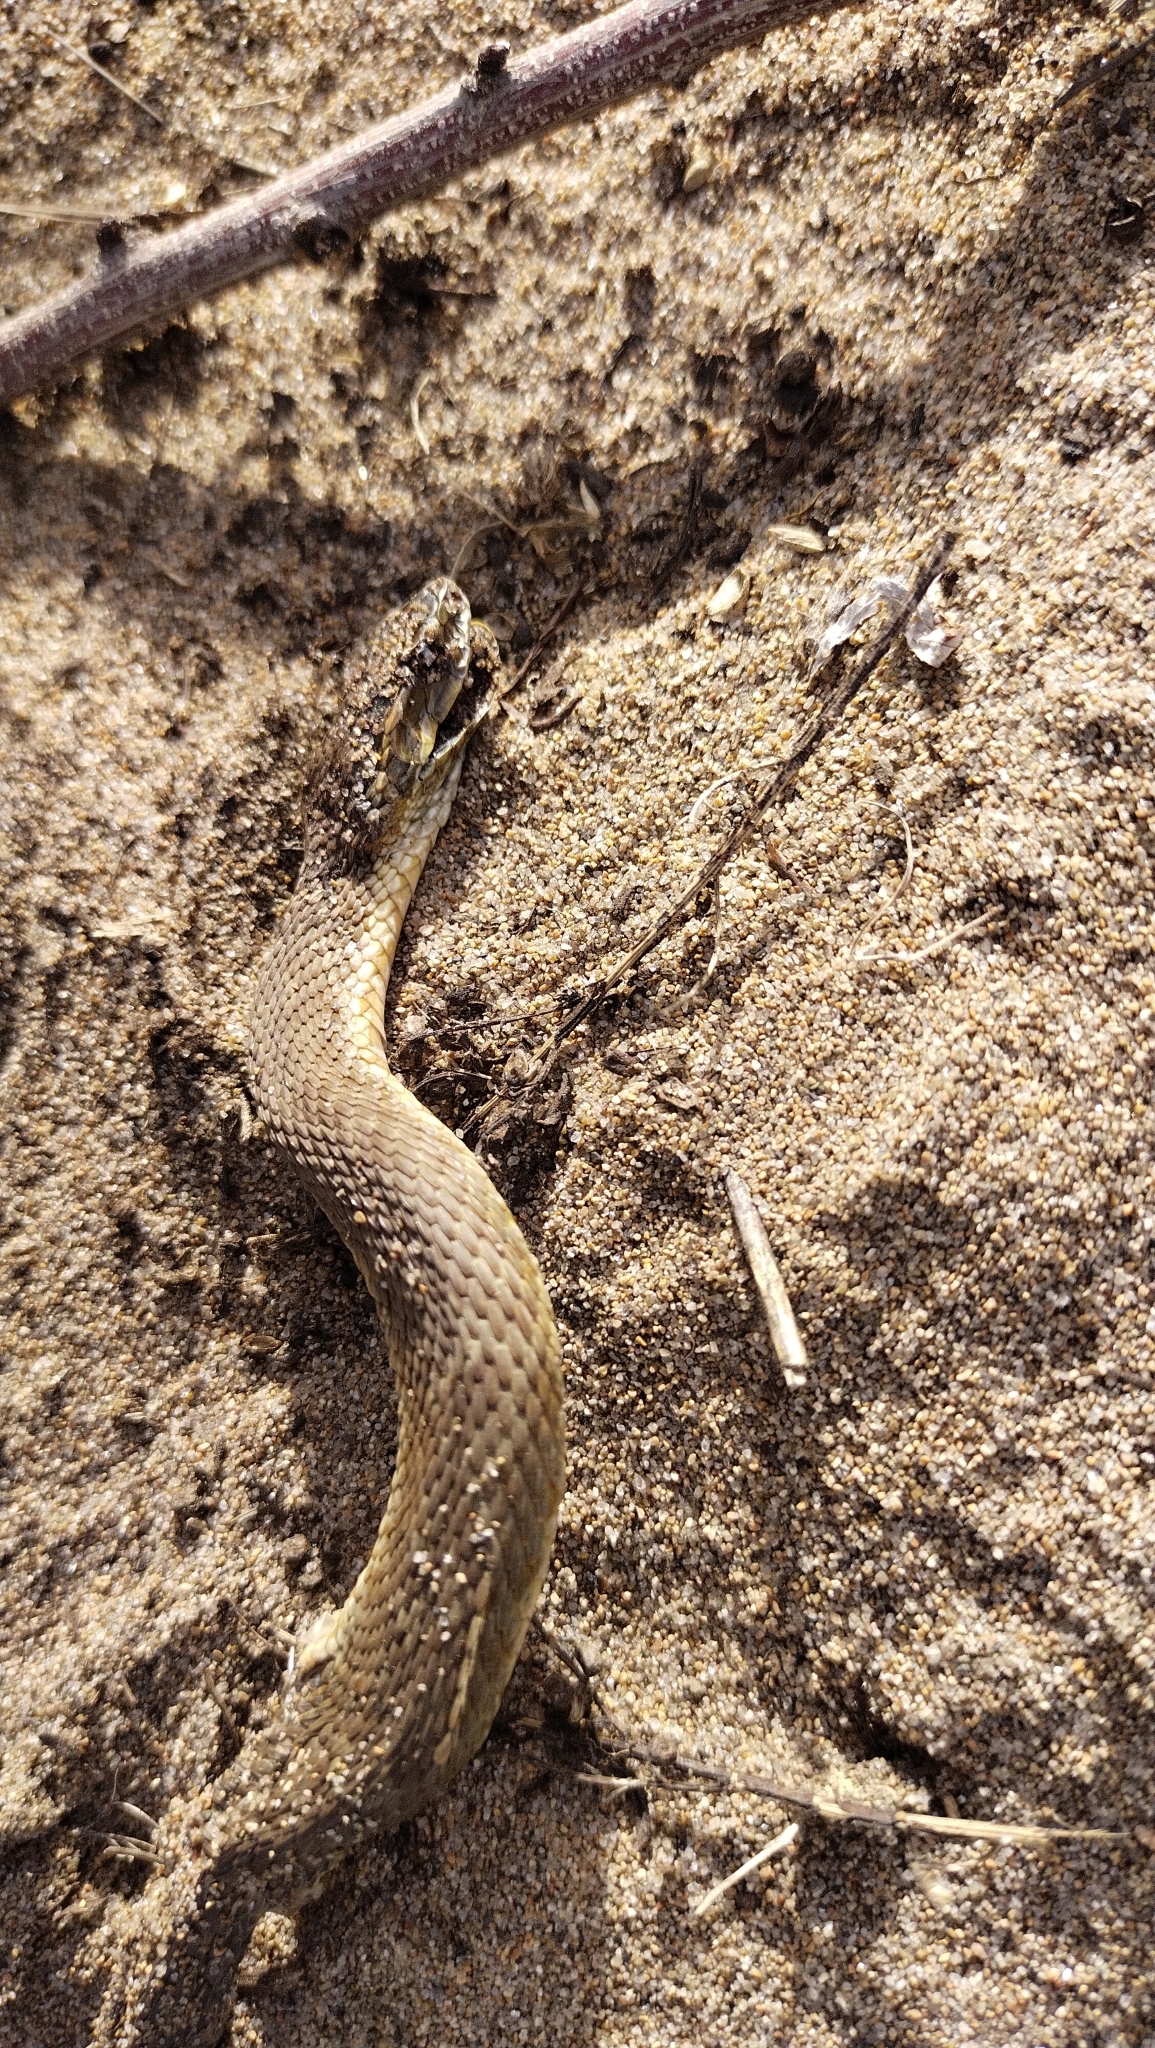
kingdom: Animalia
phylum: Chordata
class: Squamata
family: Colubridae
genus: Hebius
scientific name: Hebius vibakari
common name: Japanese keelback
